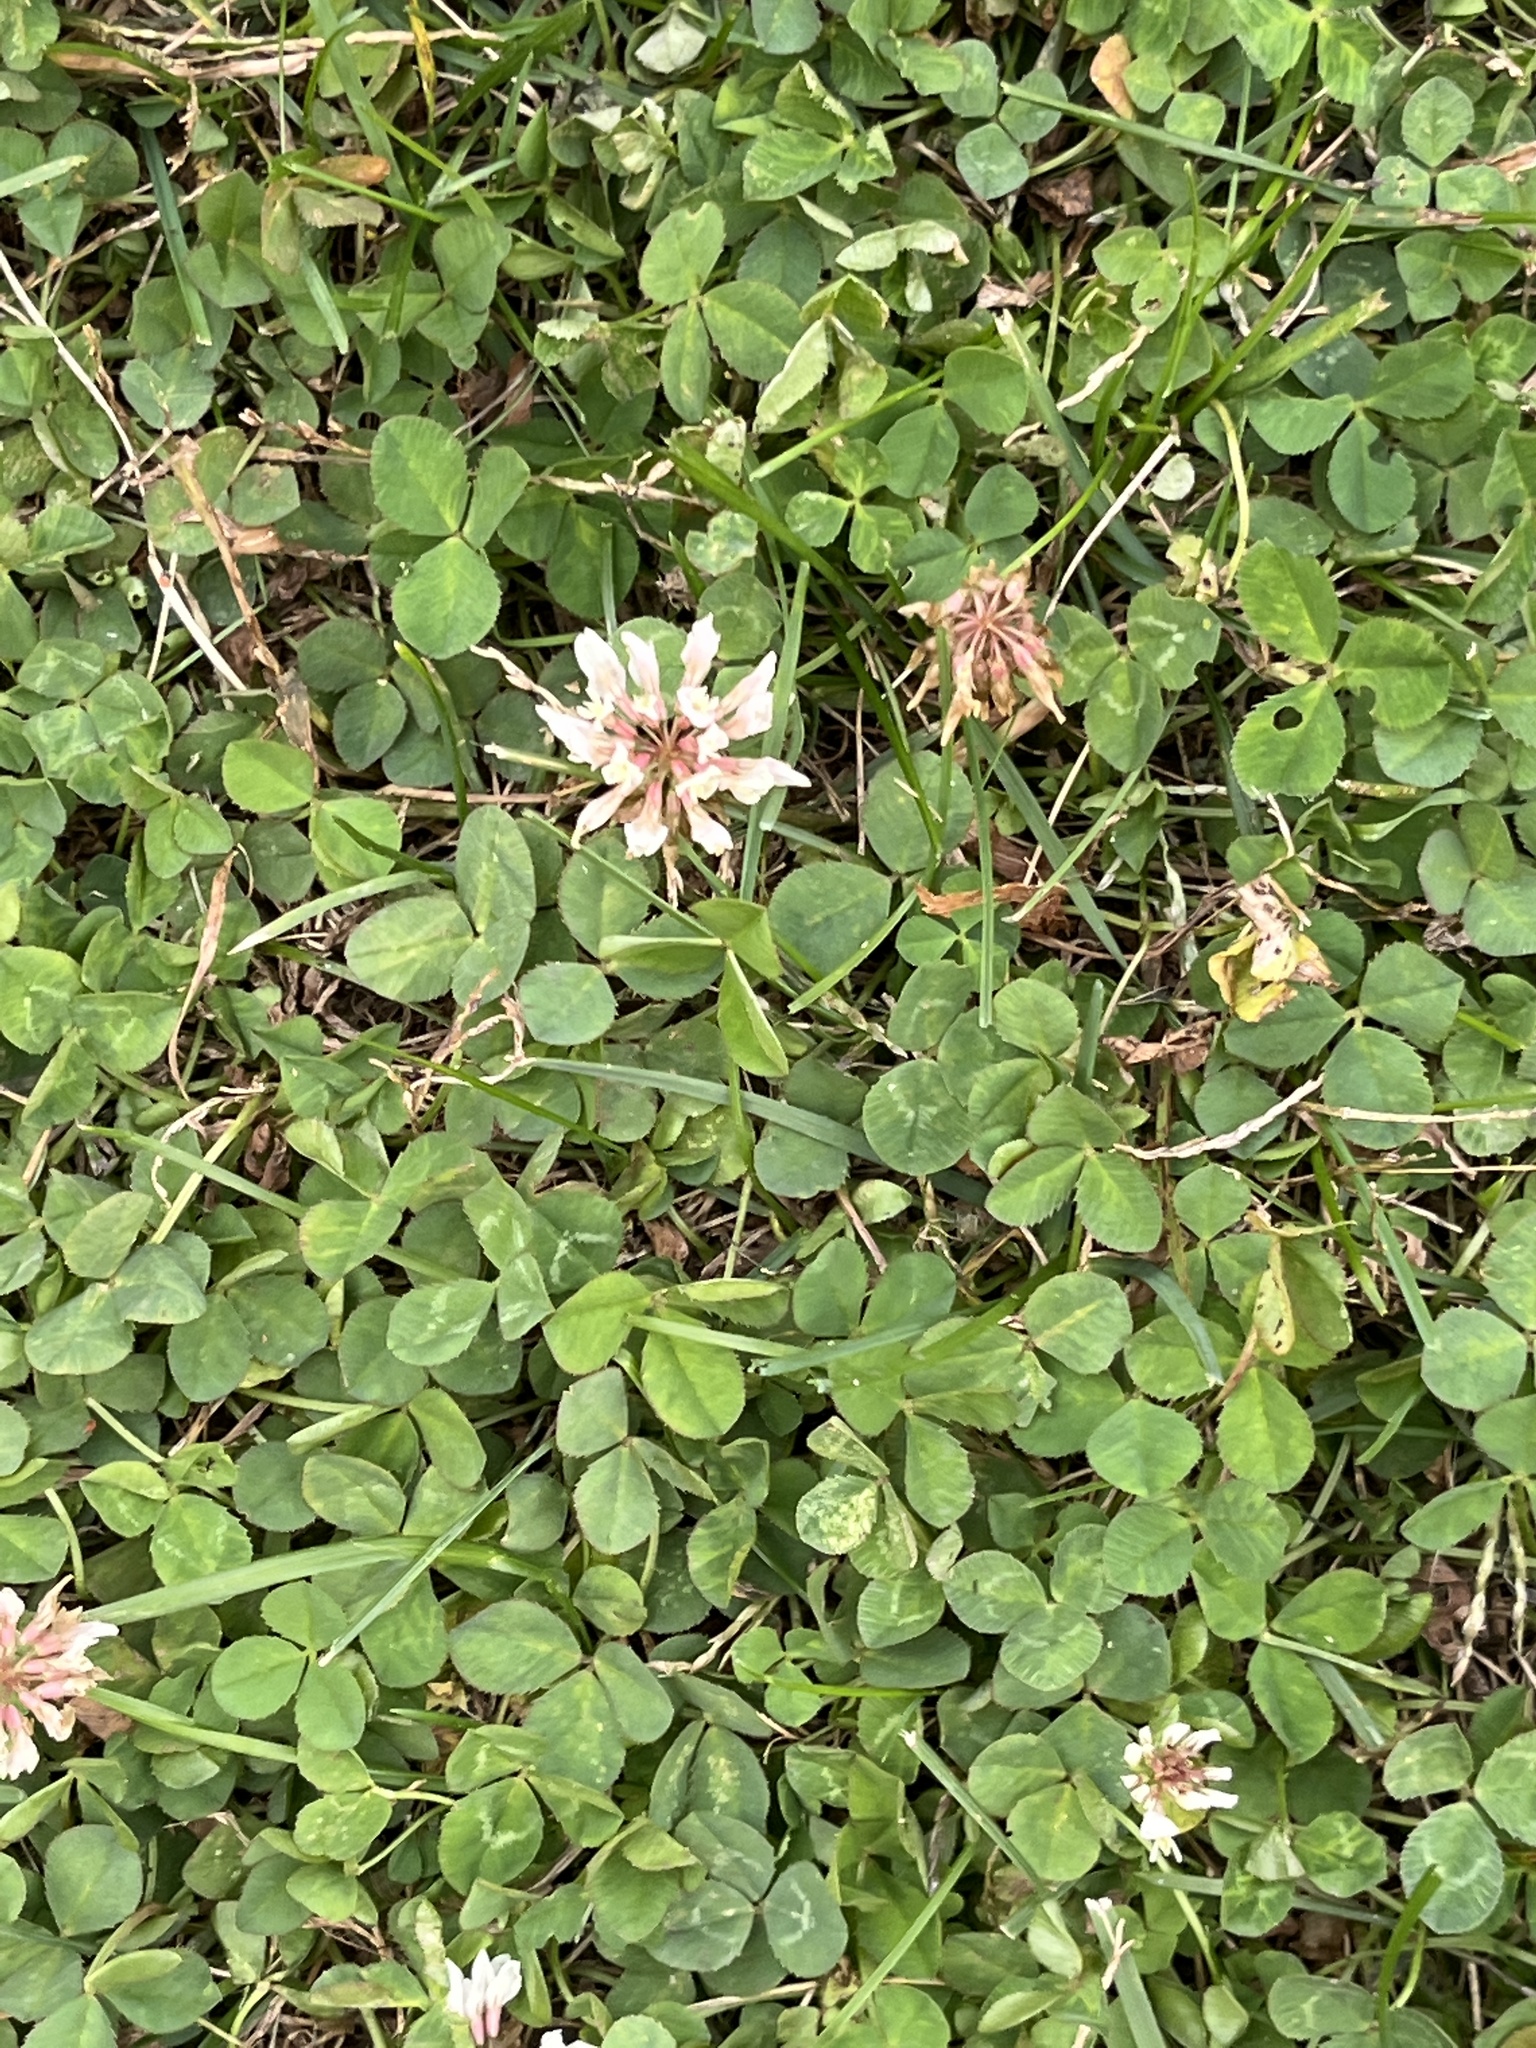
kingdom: Plantae
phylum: Tracheophyta
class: Magnoliopsida
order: Fabales
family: Fabaceae
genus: Trifolium
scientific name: Trifolium repens
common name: White clover
